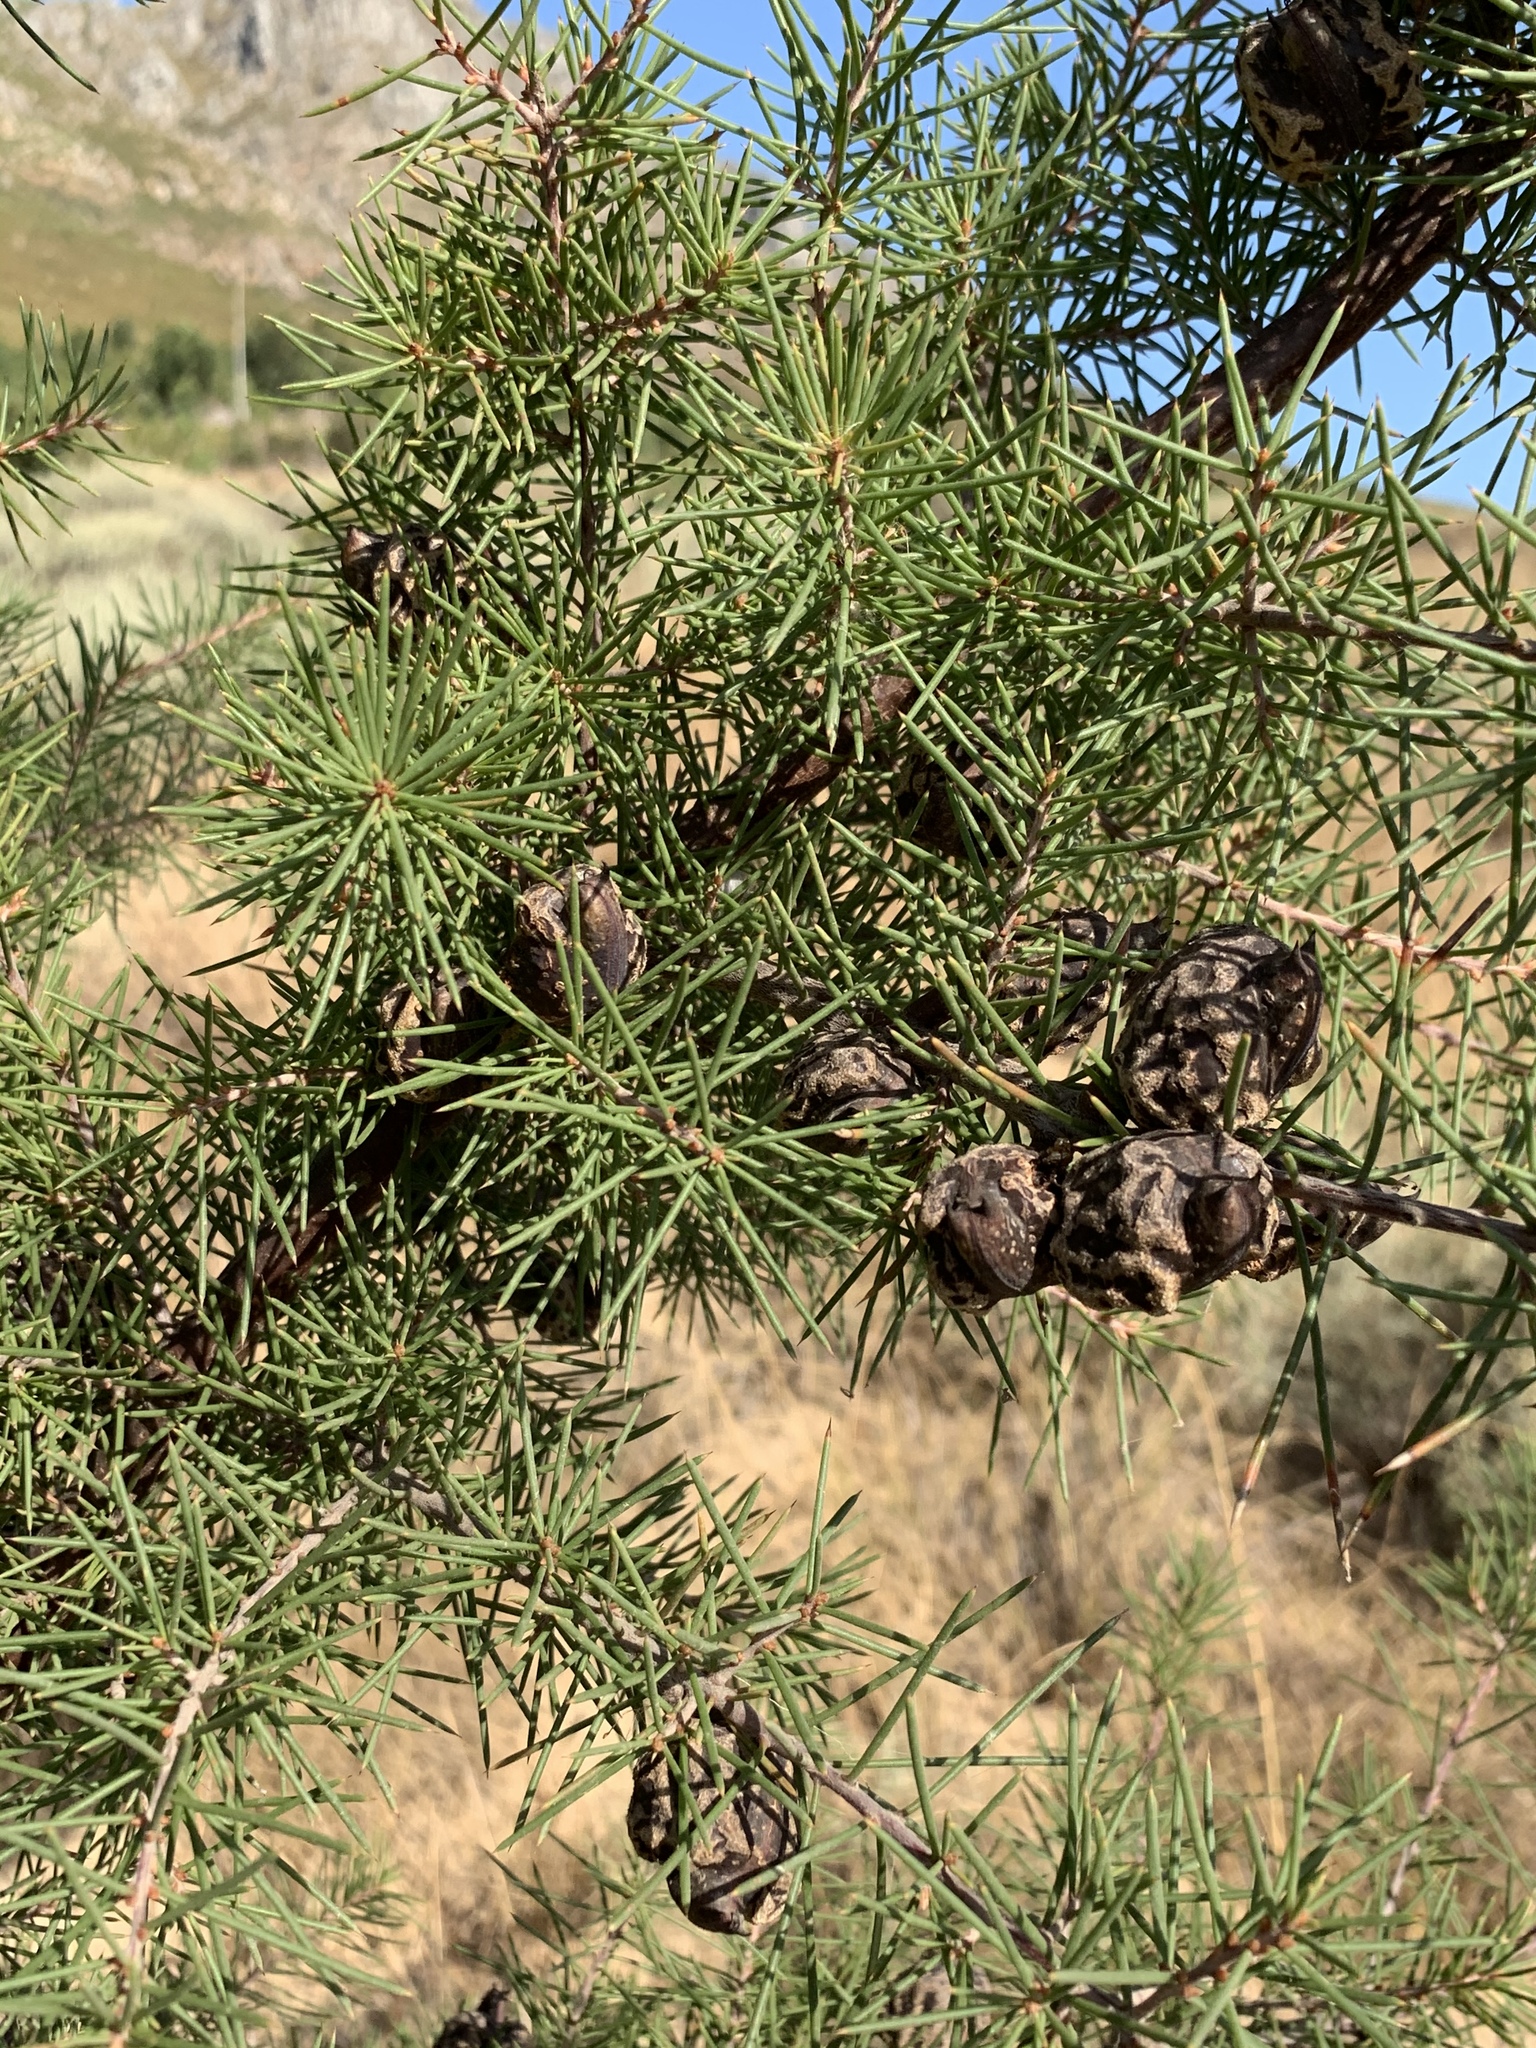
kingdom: Plantae
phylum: Tracheophyta
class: Magnoliopsida
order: Proteales
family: Proteaceae
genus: Hakea
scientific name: Hakea sericea
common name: Needle bush
